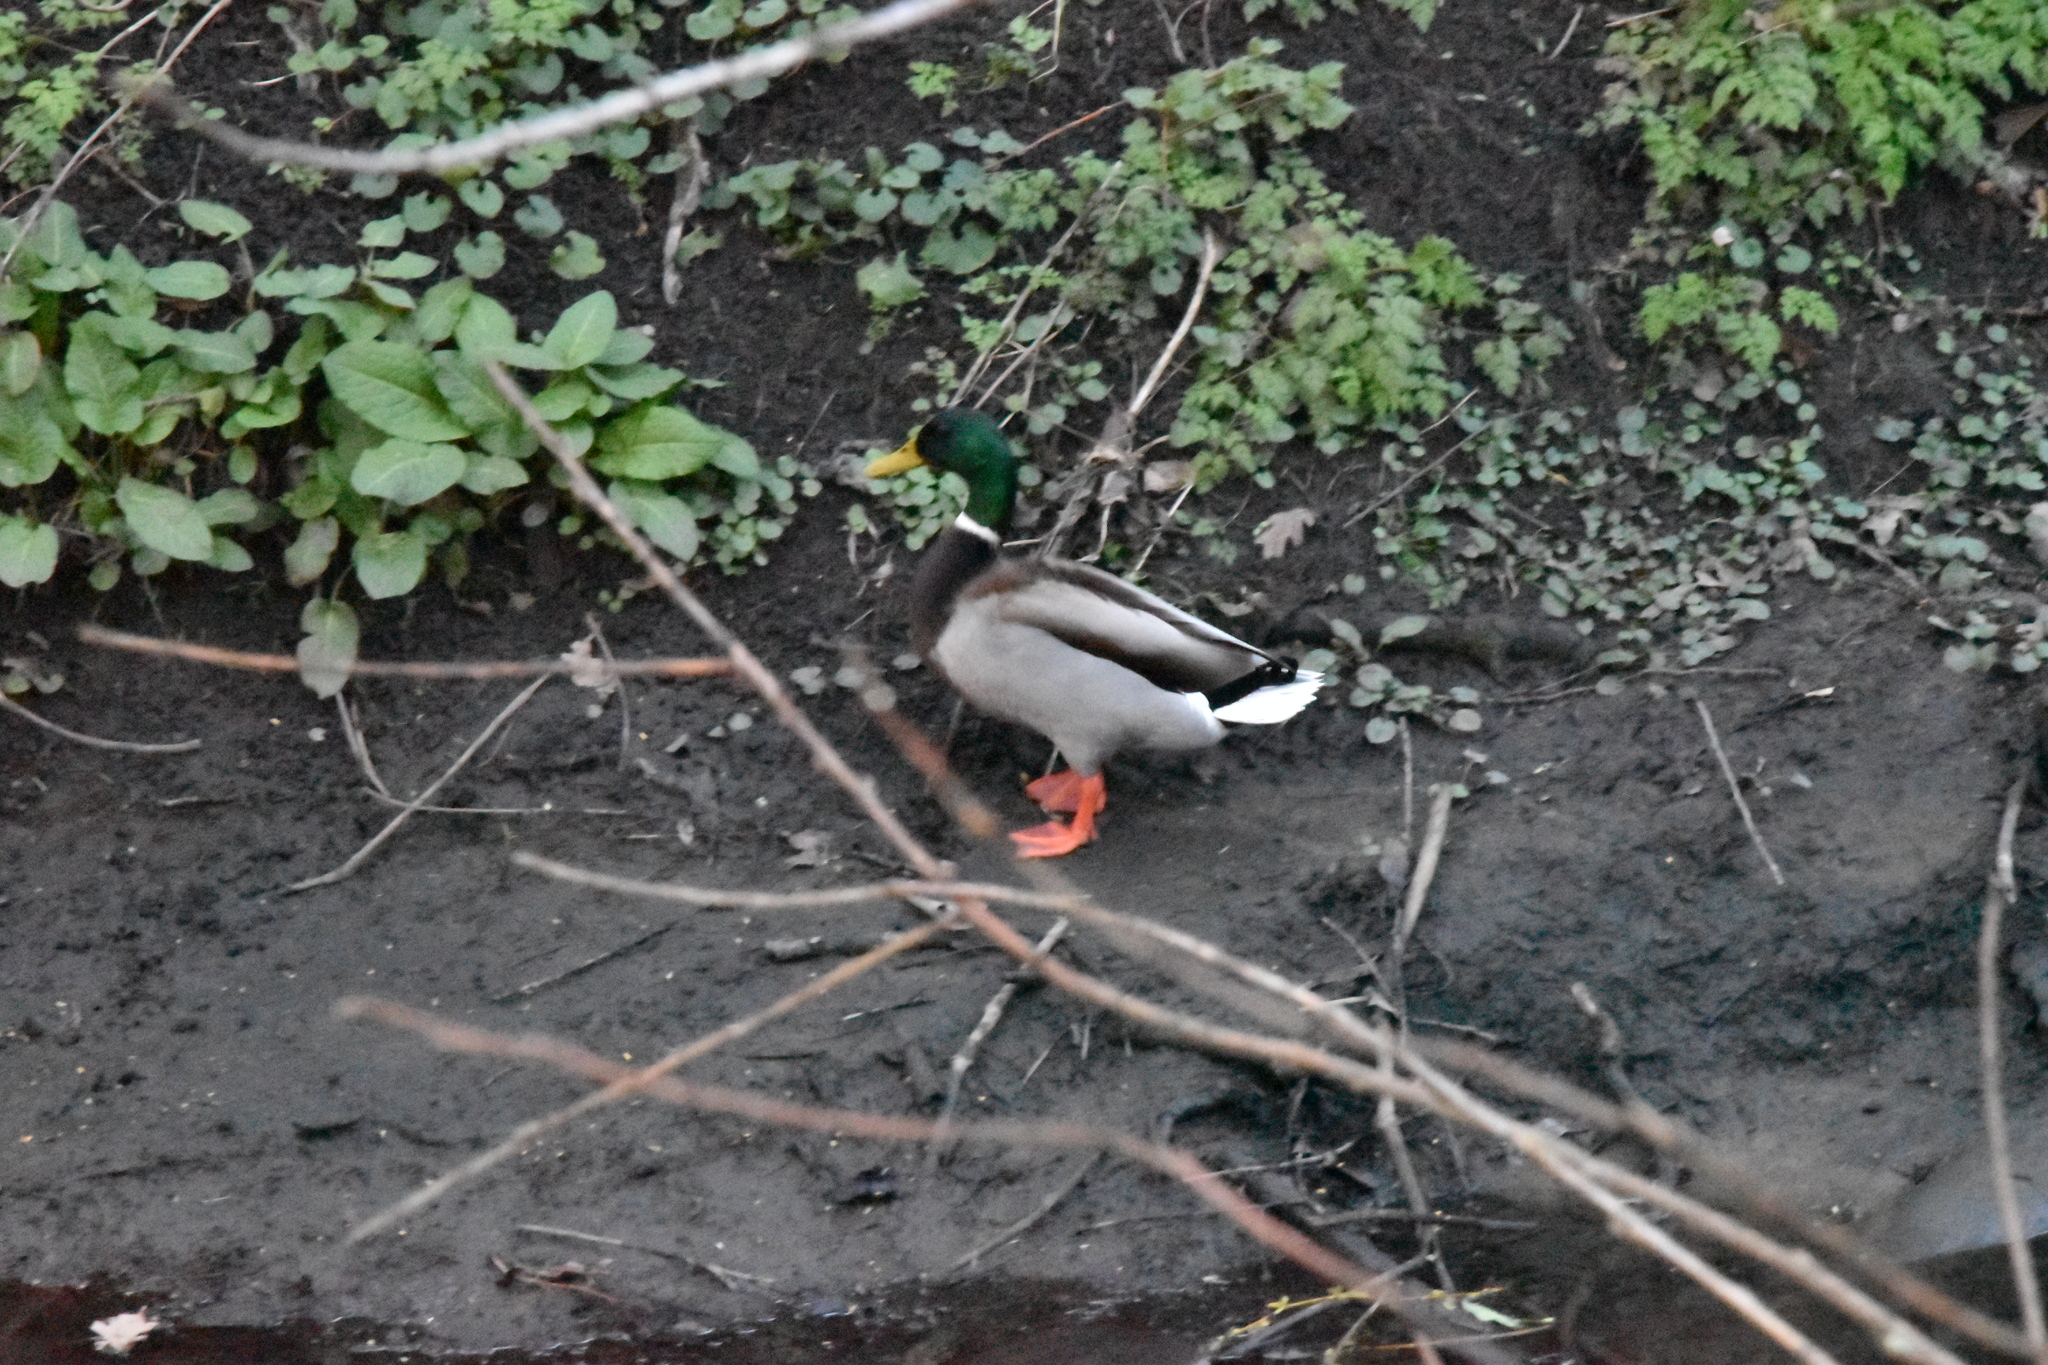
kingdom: Animalia
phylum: Chordata
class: Aves
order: Anseriformes
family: Anatidae
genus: Anas
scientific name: Anas platyrhynchos
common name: Mallard
